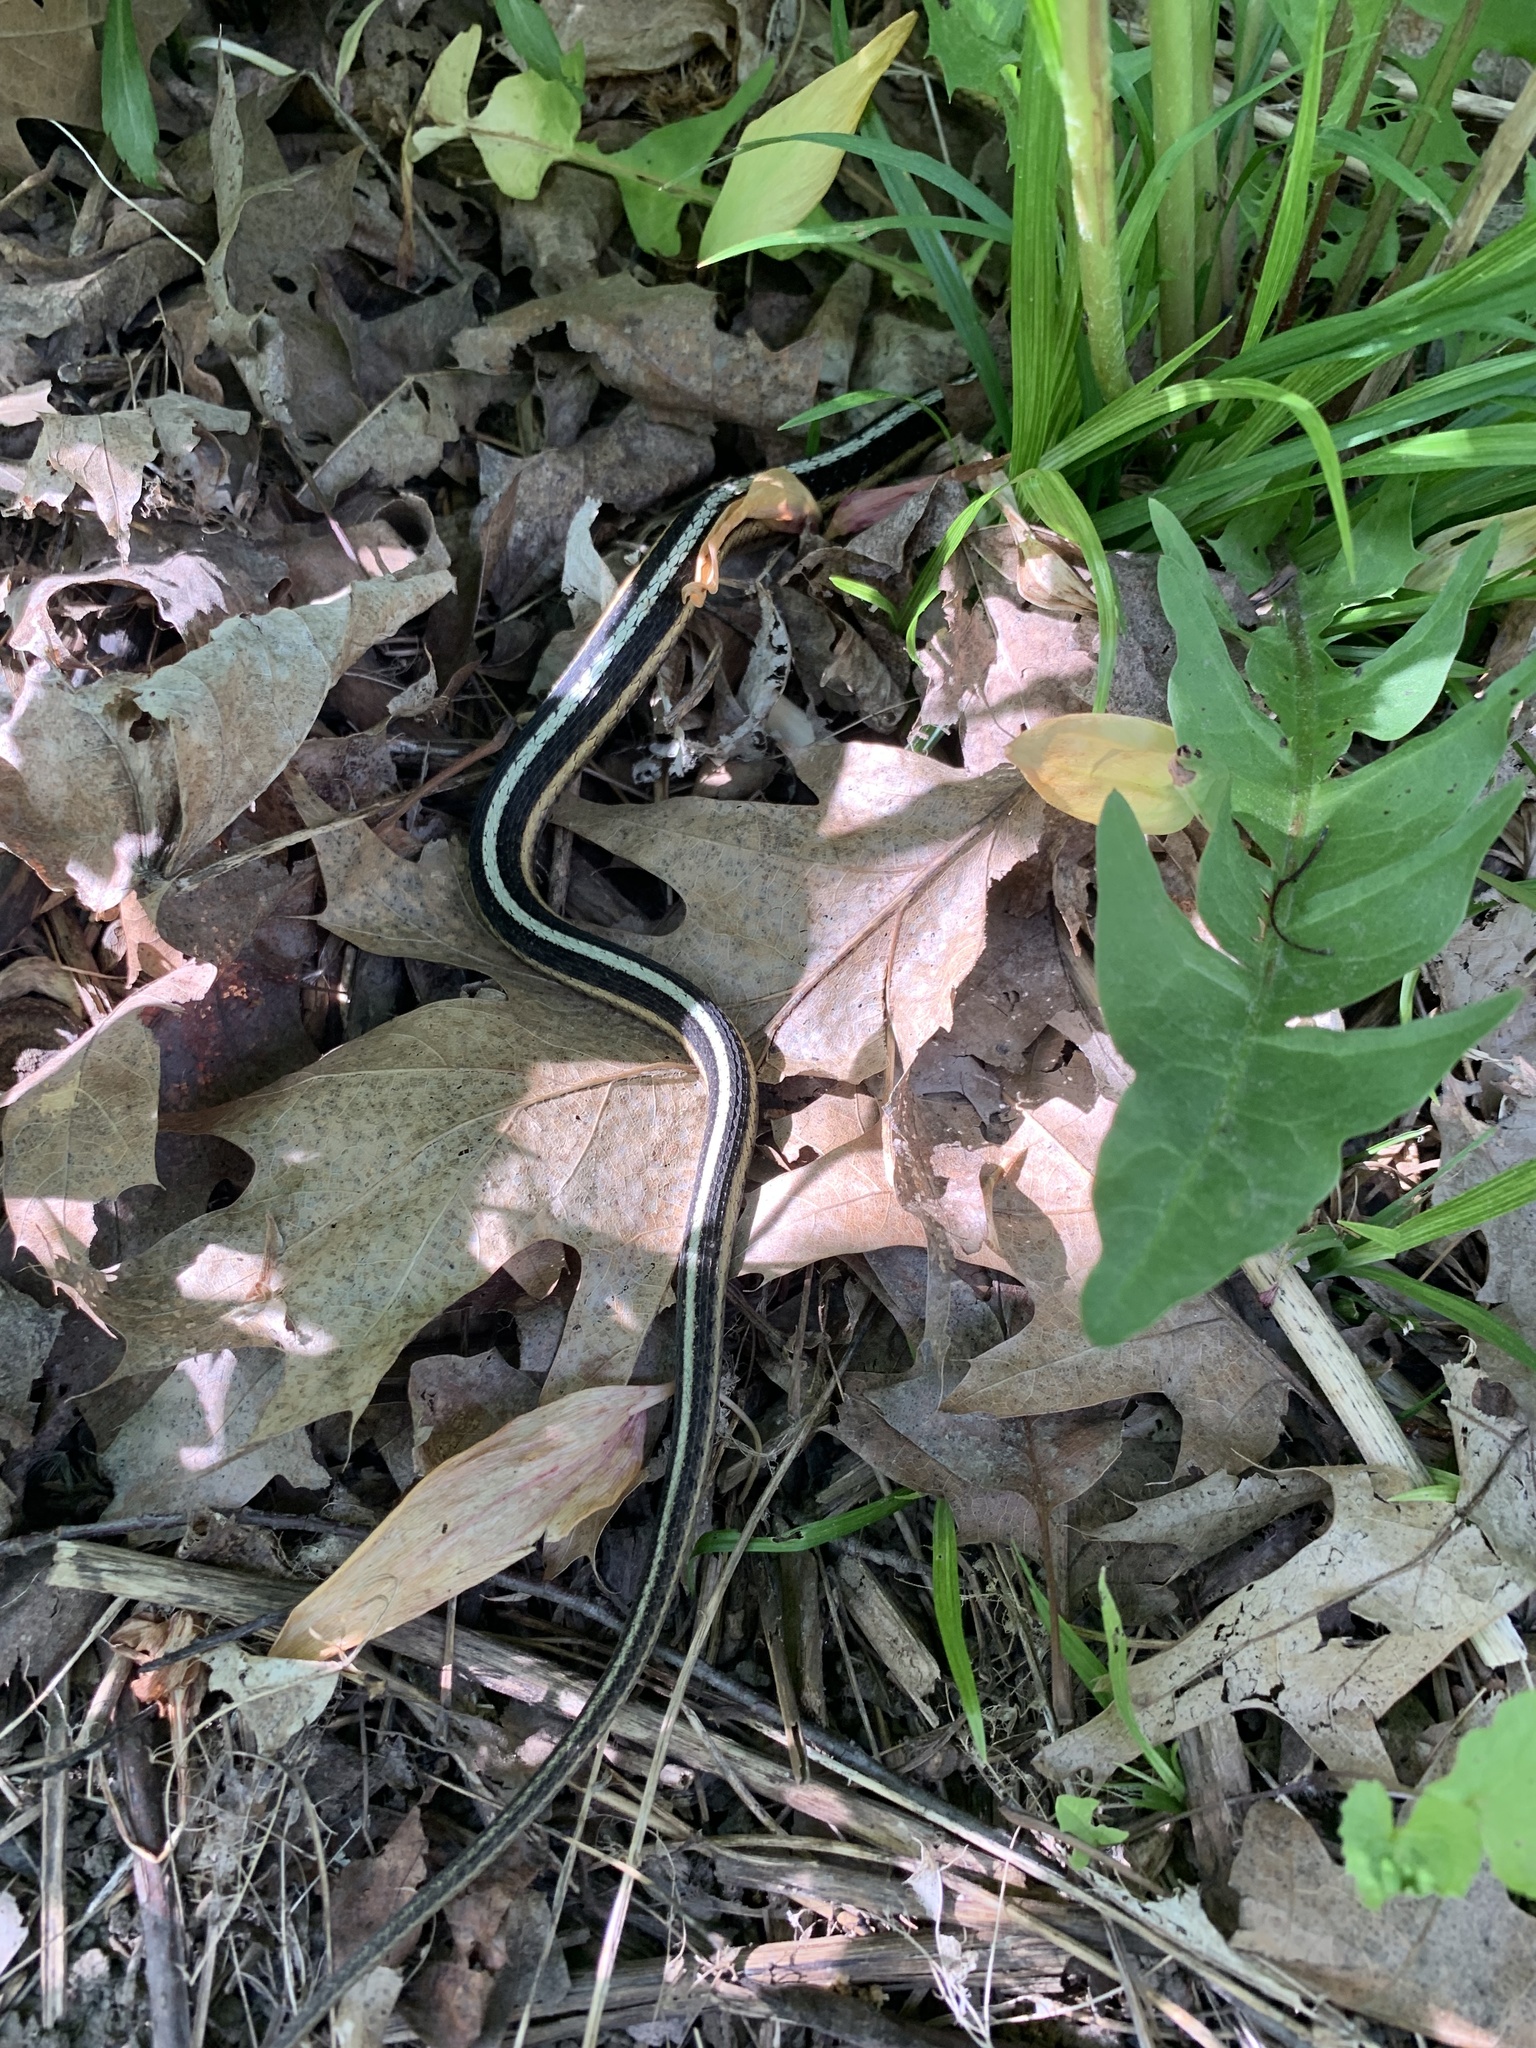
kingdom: Animalia
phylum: Chordata
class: Squamata
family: Colubridae
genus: Thamnophis
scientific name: Thamnophis sirtalis
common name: Common garter snake
